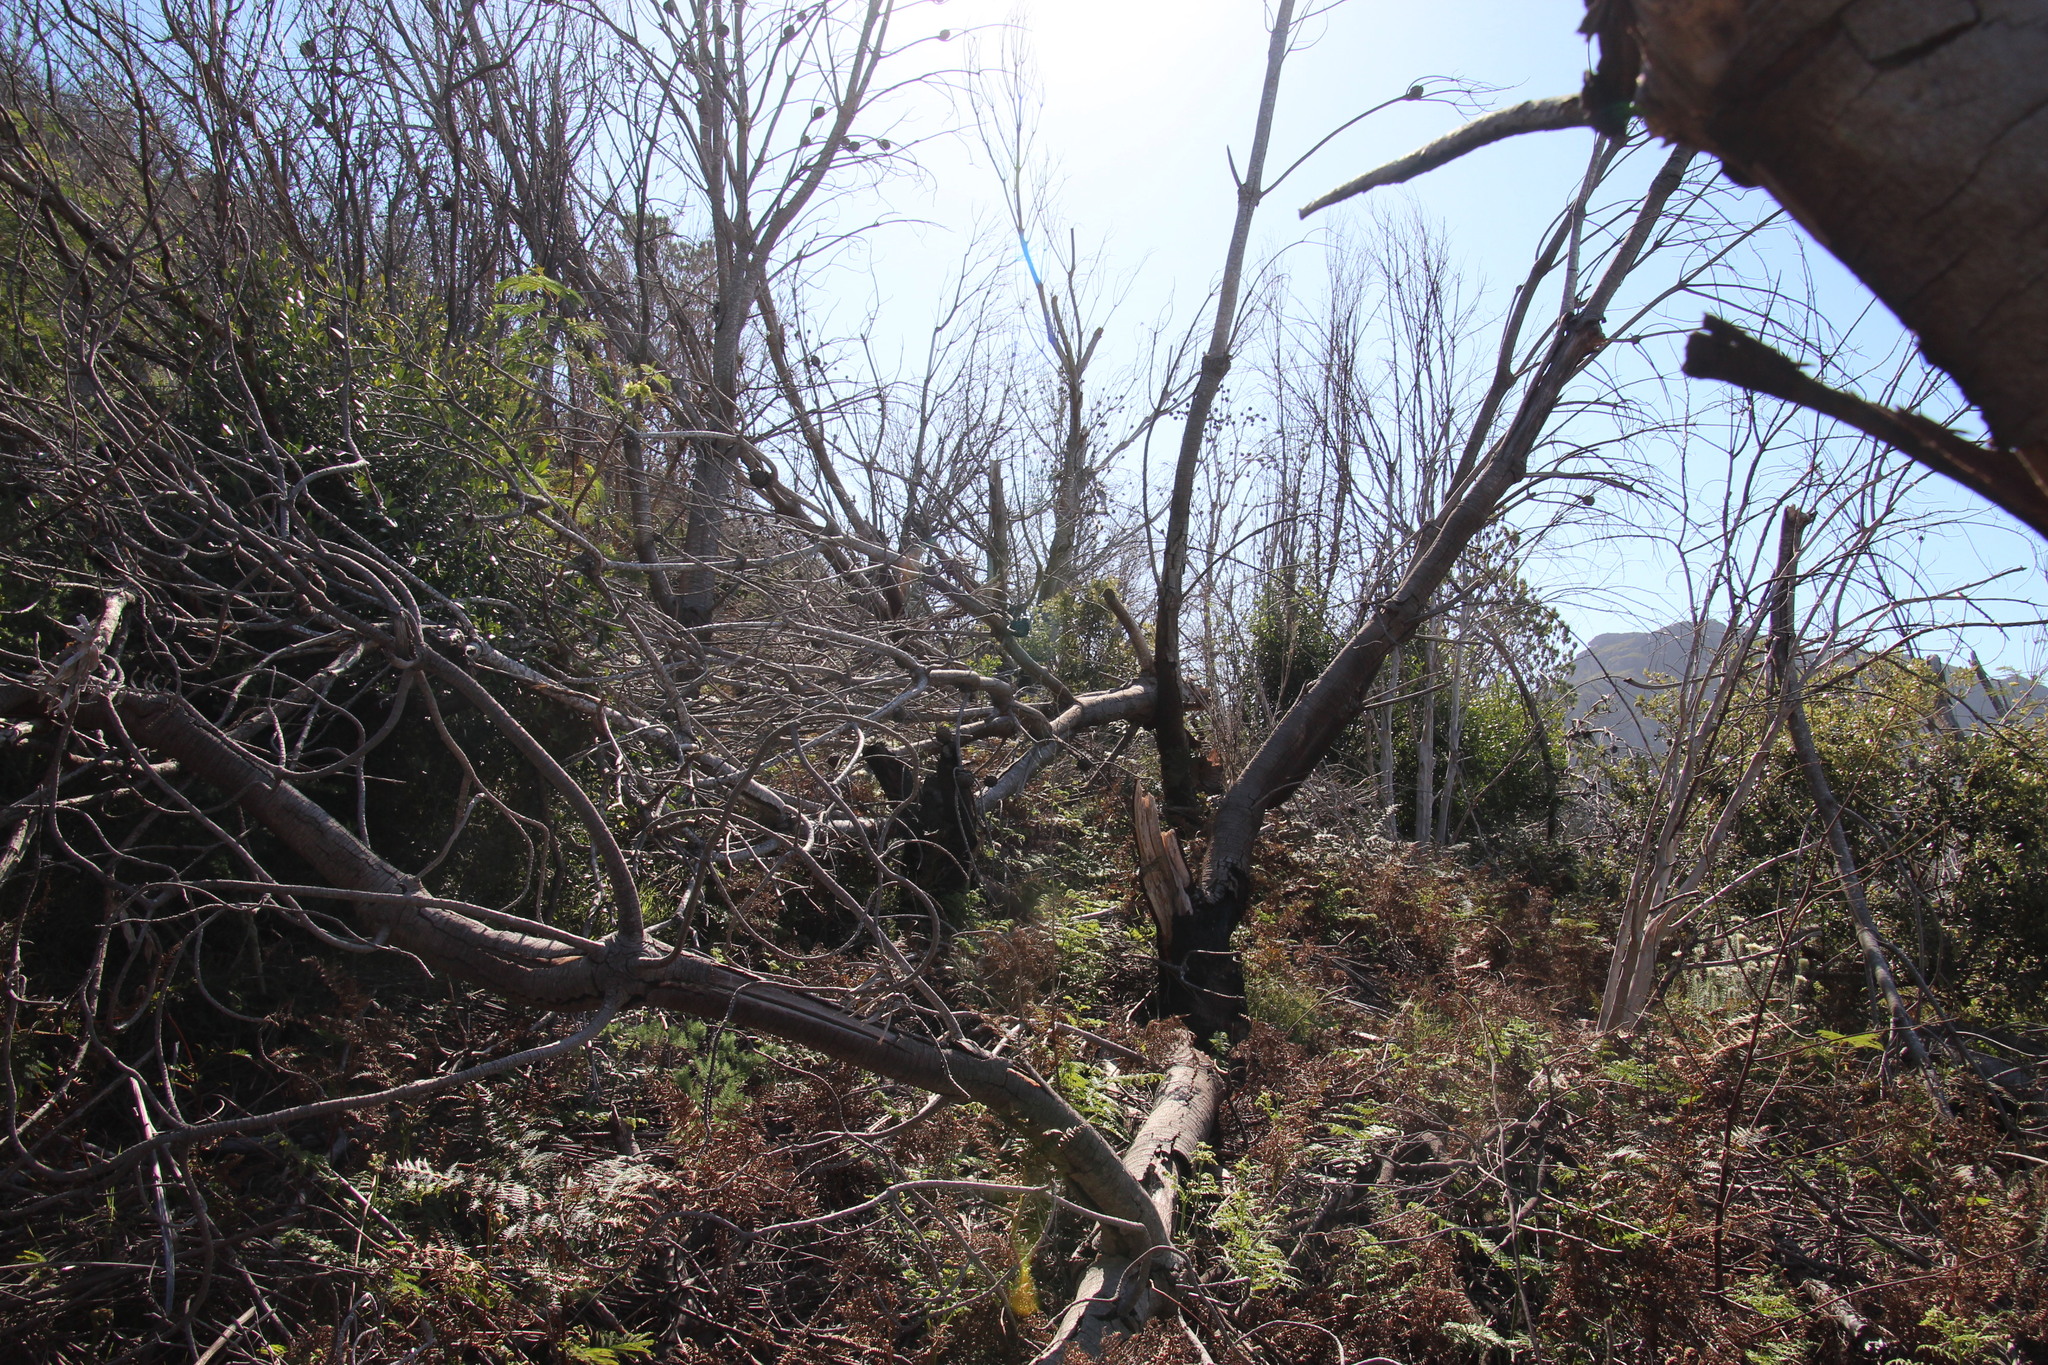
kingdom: Plantae
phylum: Tracheophyta
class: Magnoliopsida
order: Proteales
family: Proteaceae
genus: Leucadendron
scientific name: Leucadendron argenteum
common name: Cape silver tree
